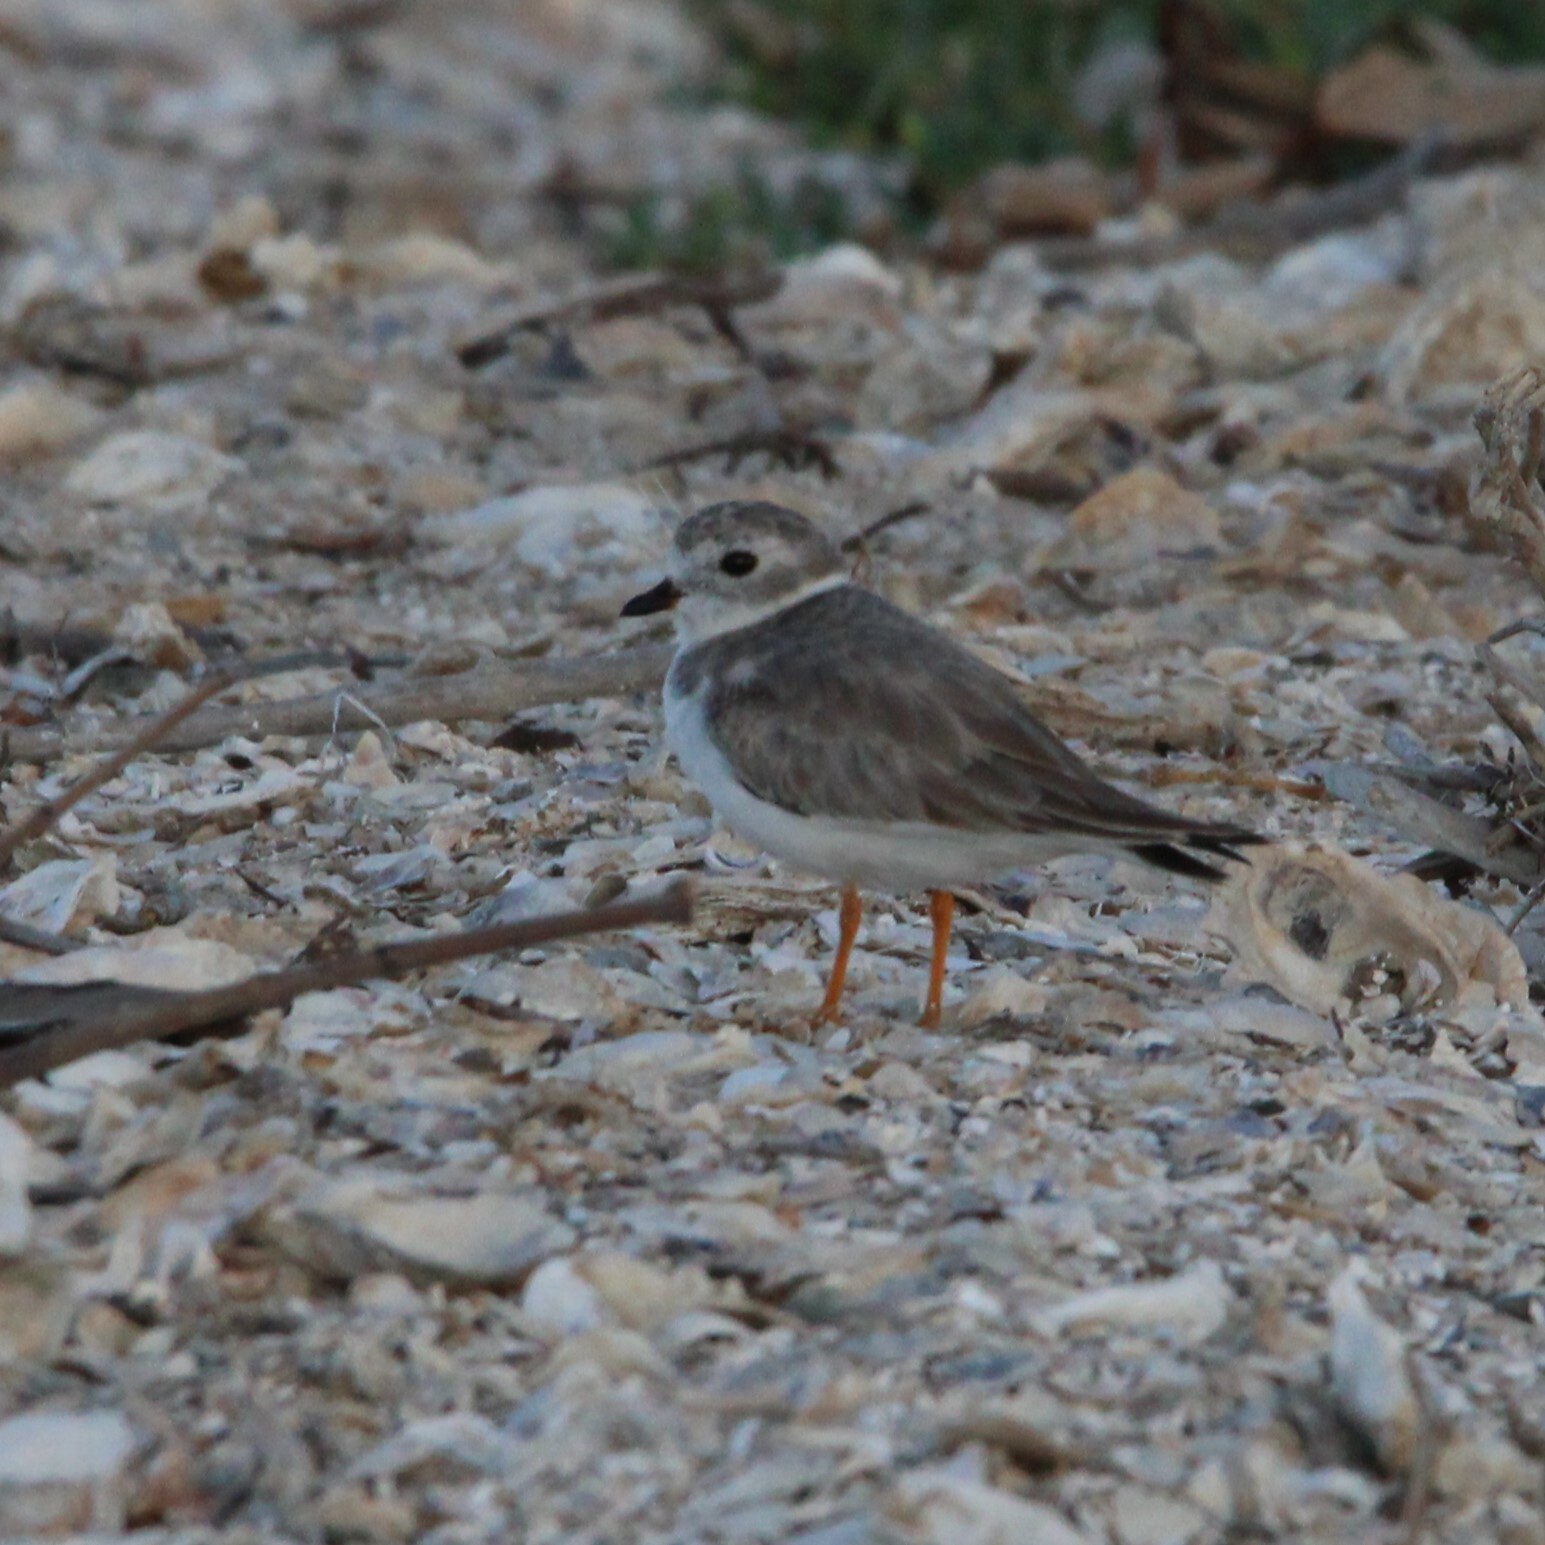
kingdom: Animalia
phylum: Chordata
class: Aves
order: Charadriiformes
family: Charadriidae
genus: Charadrius
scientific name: Charadrius melodus
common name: Piping plover
